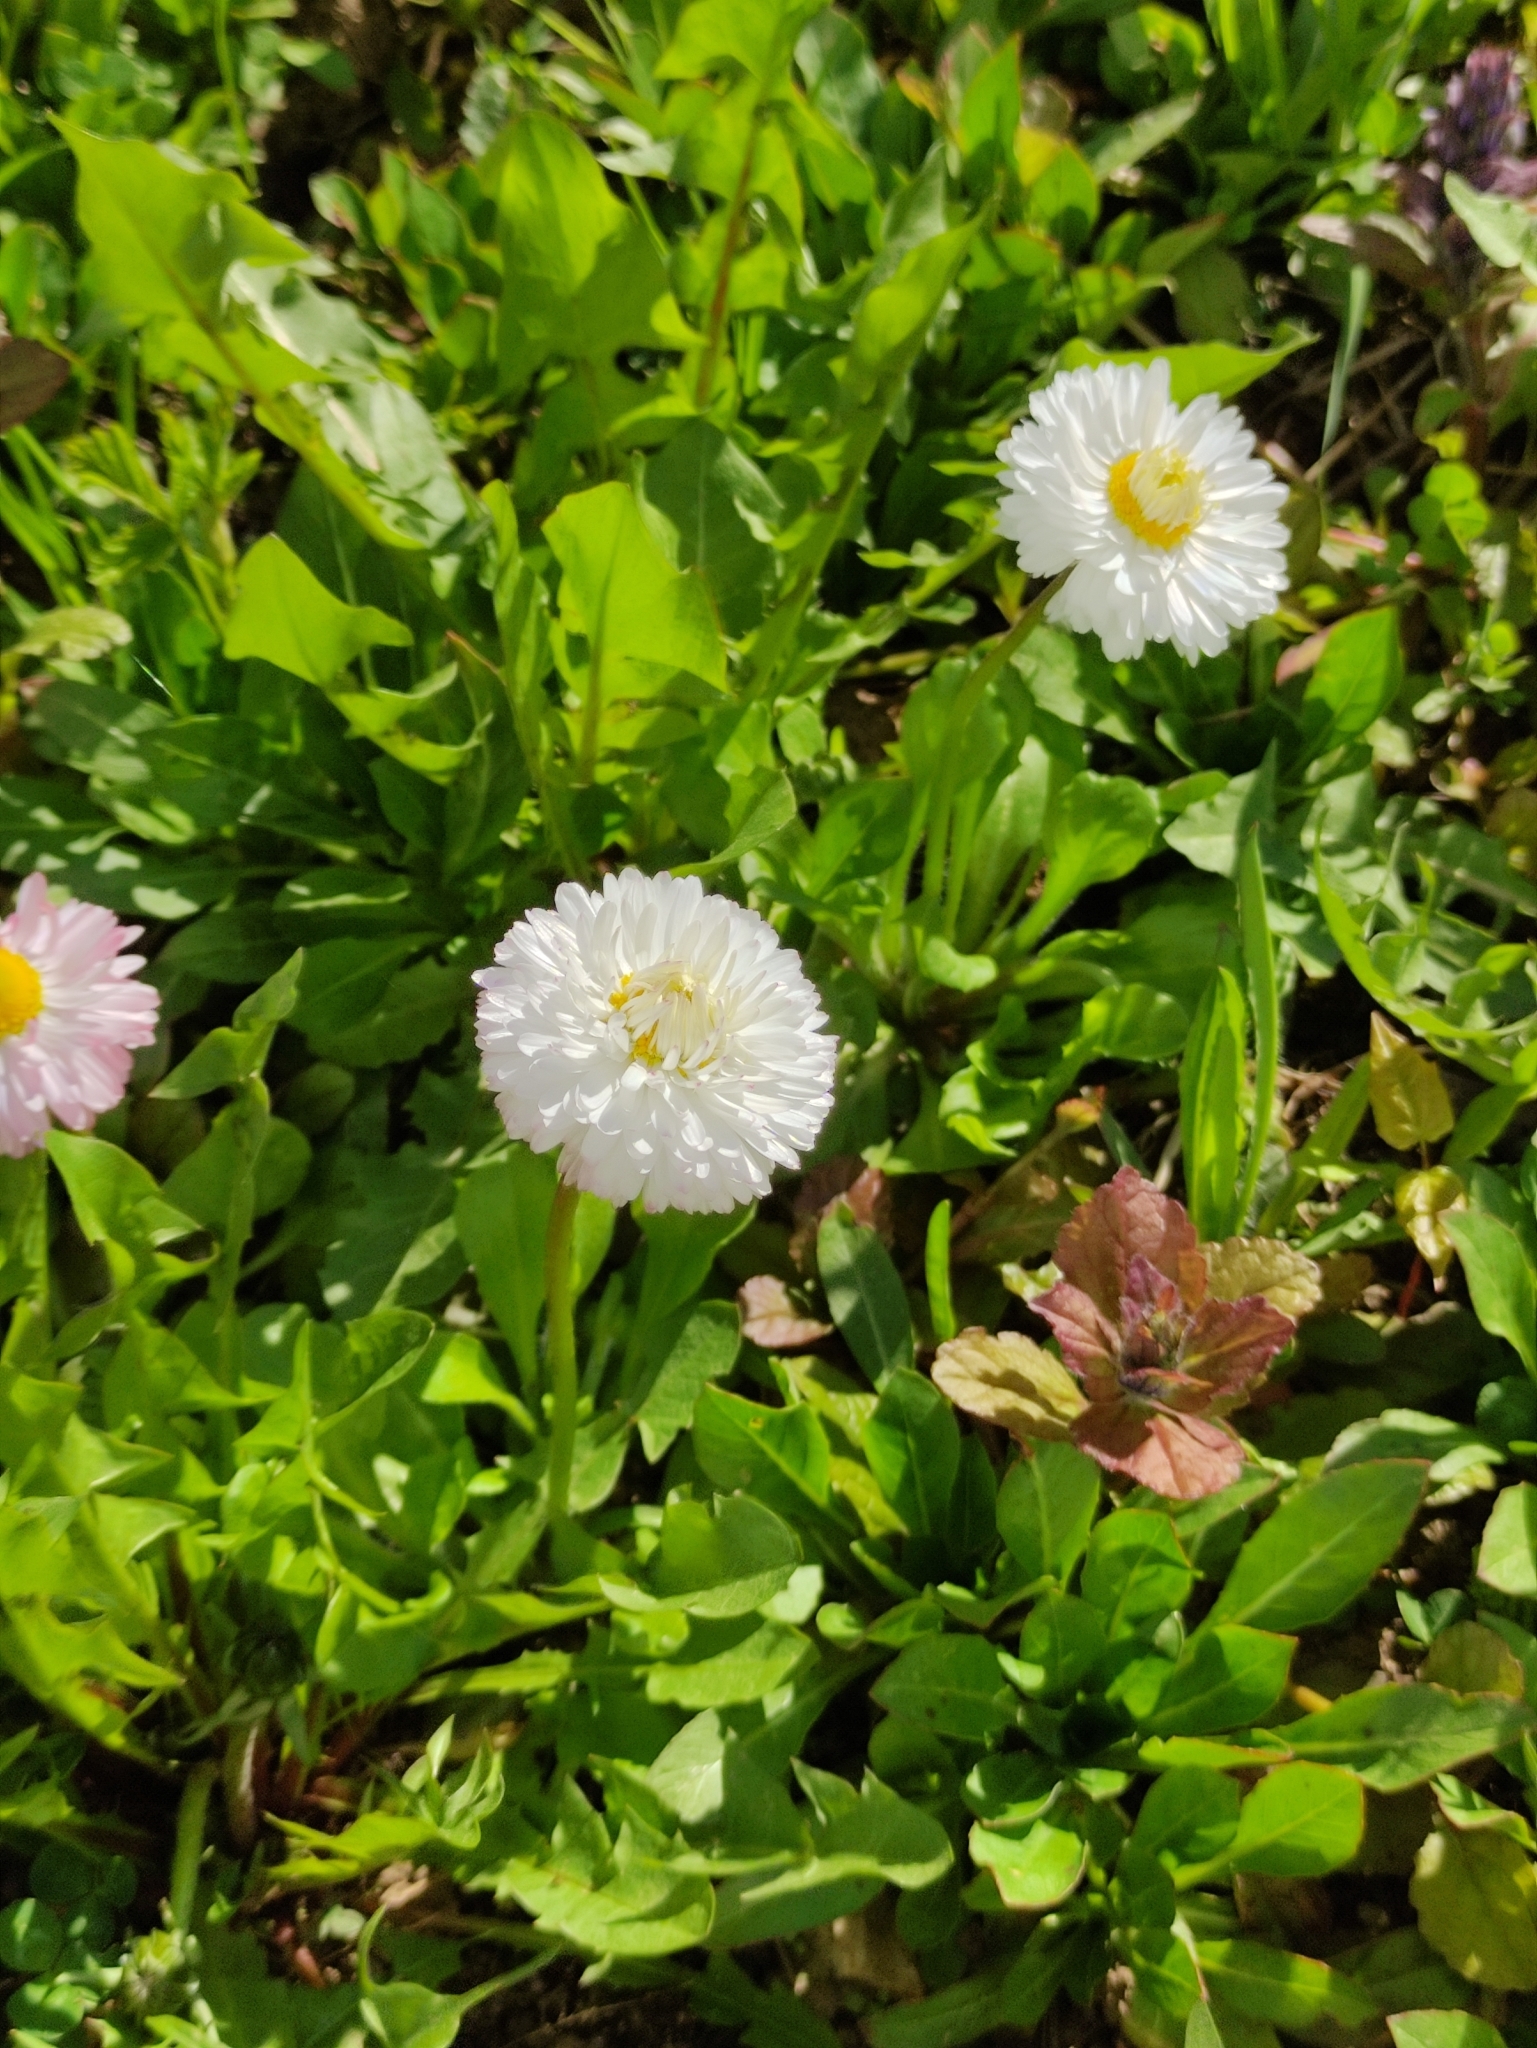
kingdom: Plantae
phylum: Tracheophyta
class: Magnoliopsida
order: Asterales
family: Asteraceae
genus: Bellis
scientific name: Bellis perennis
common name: Lawndaisy
